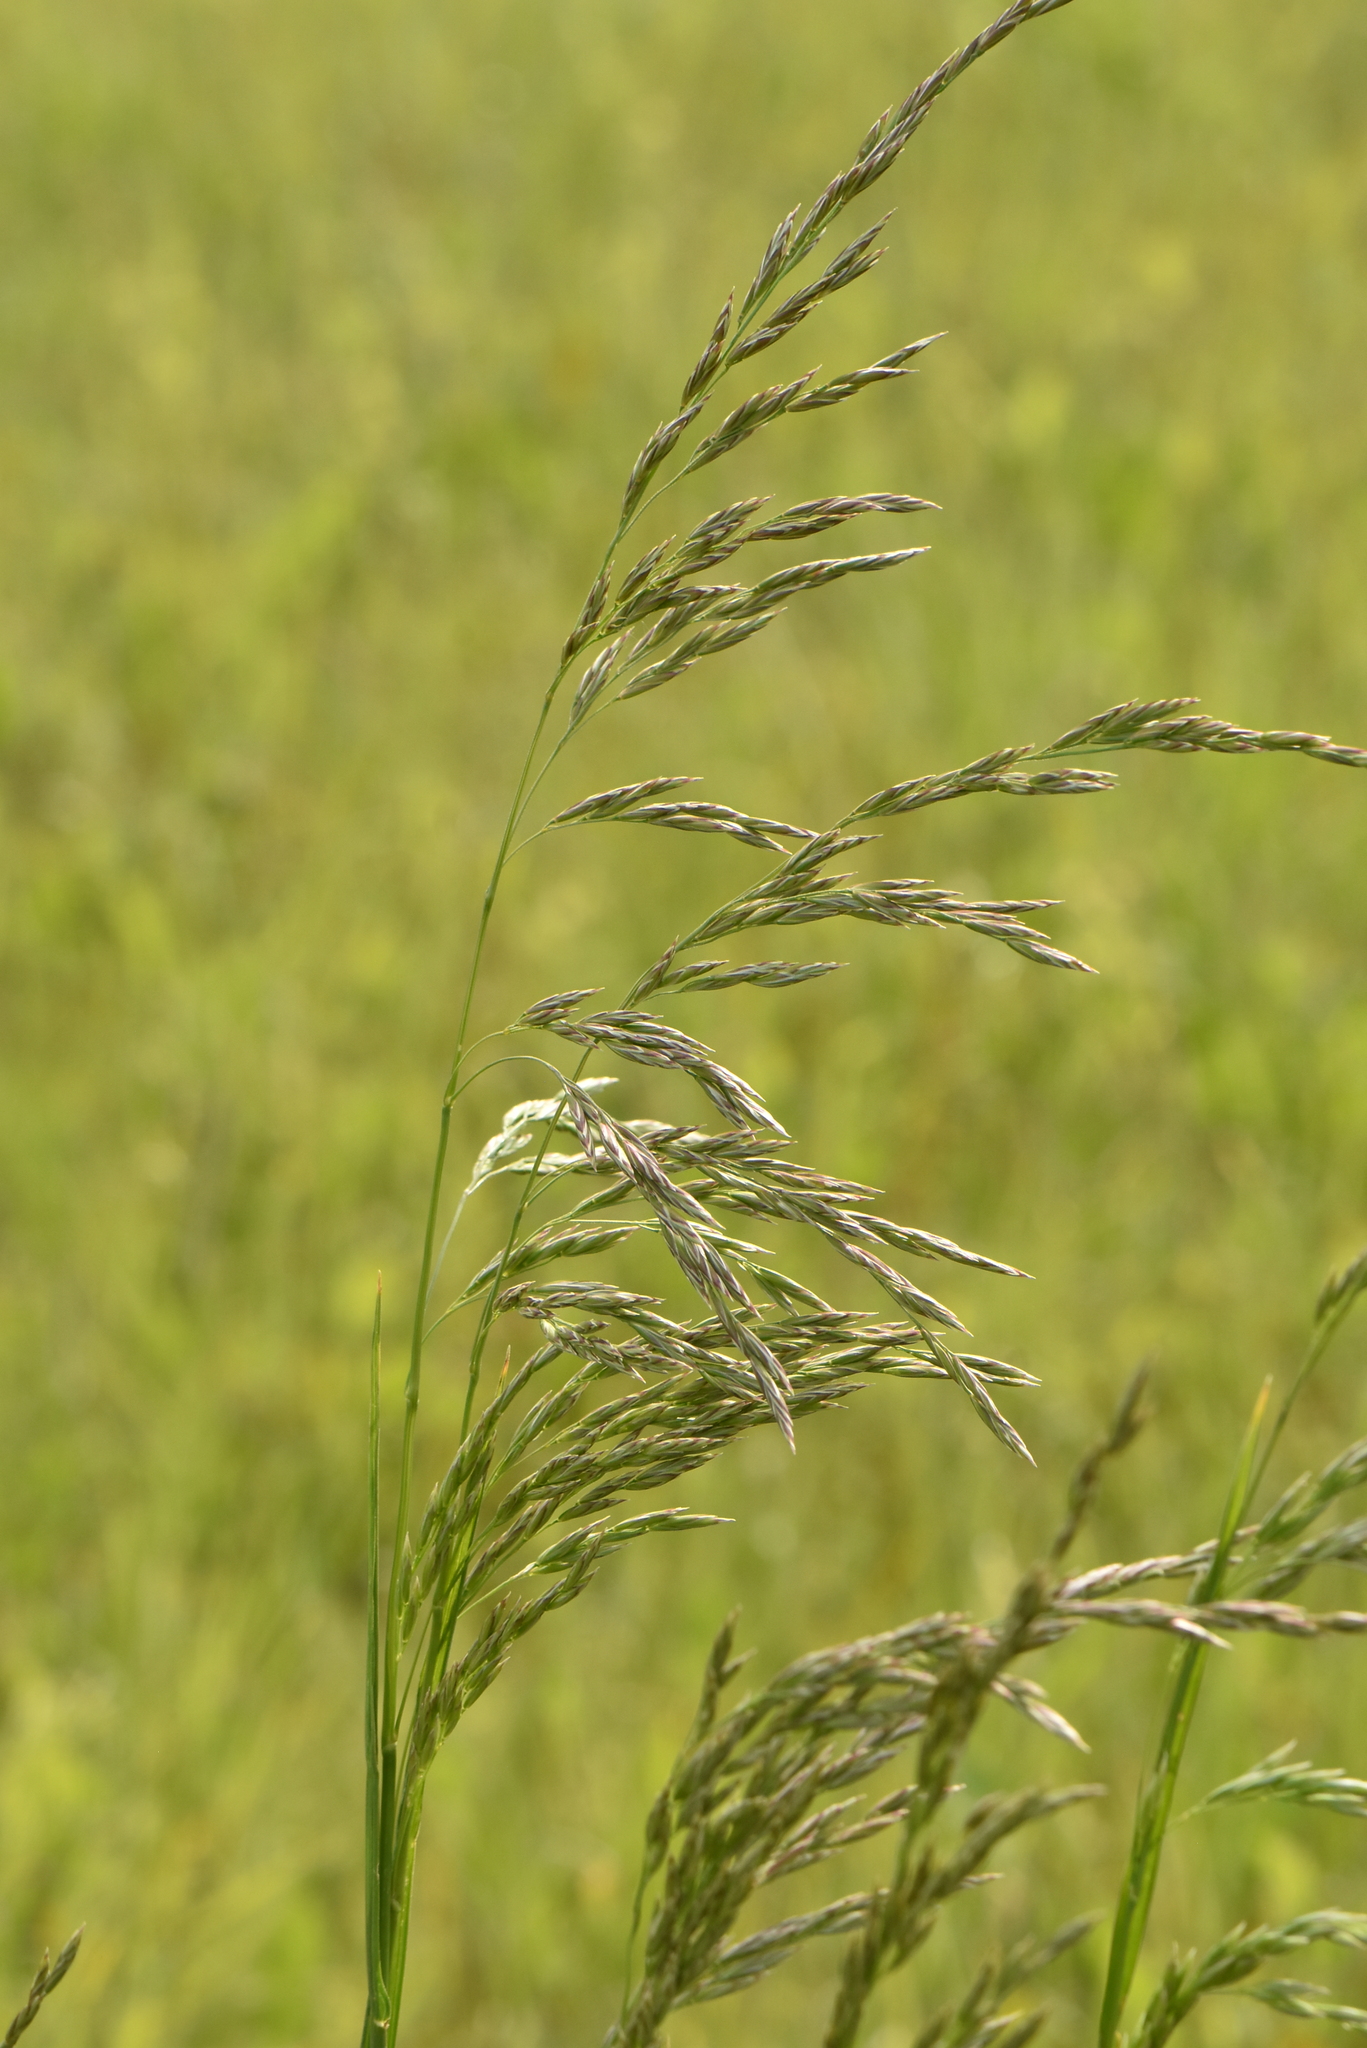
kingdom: Plantae
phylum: Tracheophyta
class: Liliopsida
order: Poales
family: Poaceae
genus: Lolium
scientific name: Lolium arundinaceum
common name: Reed fescue
